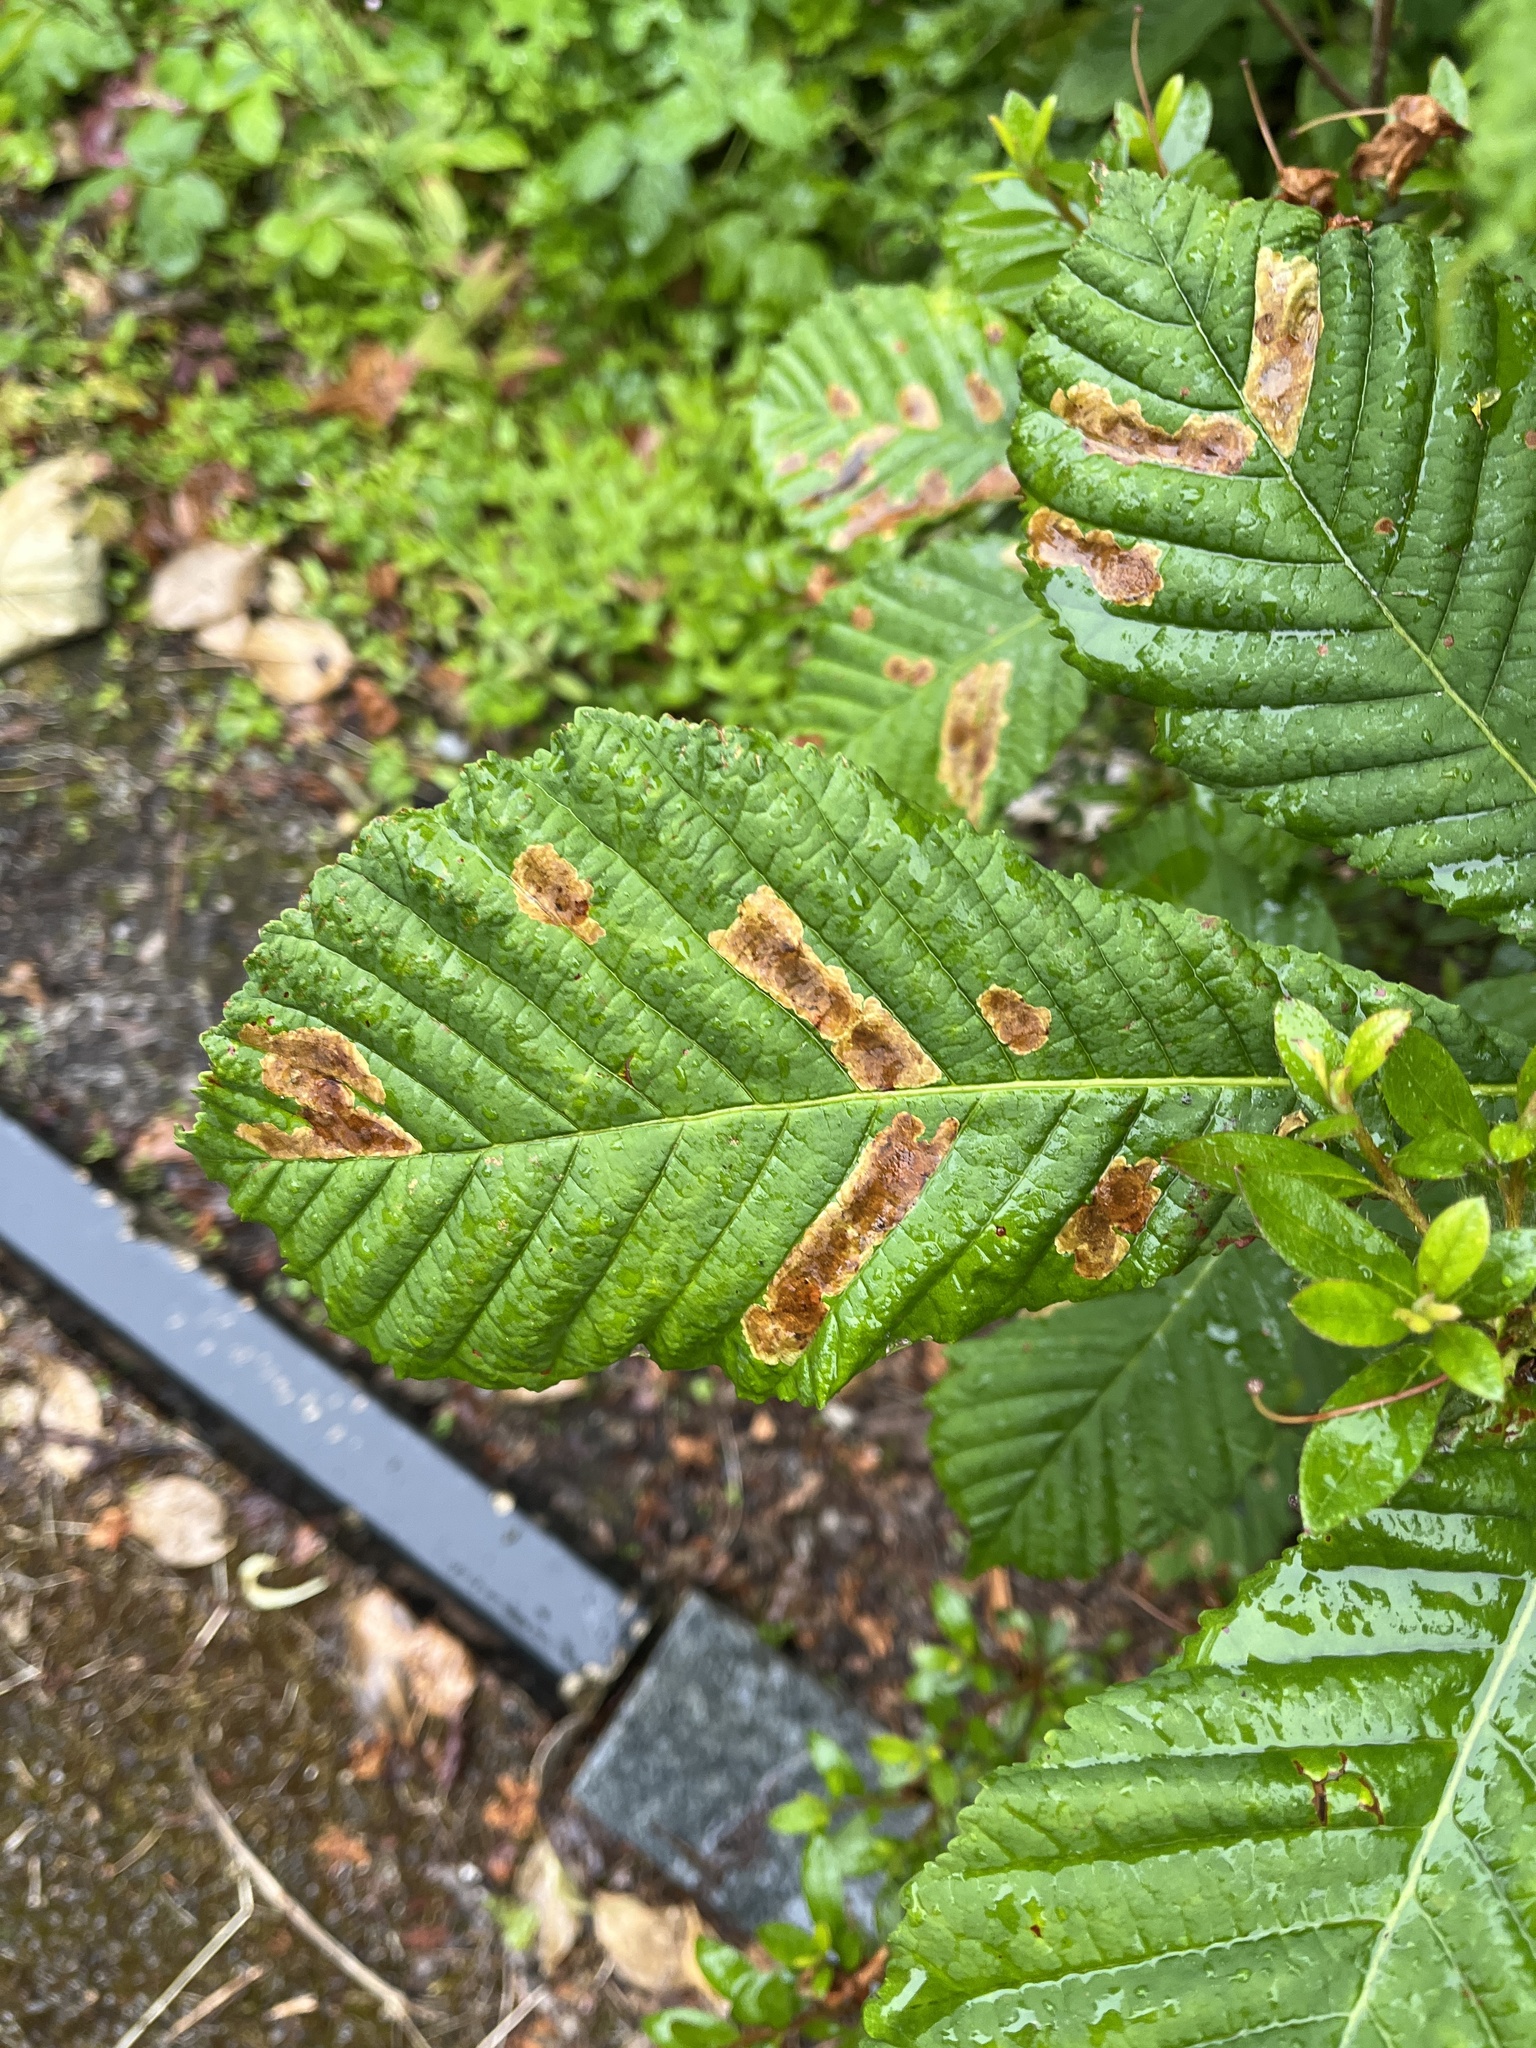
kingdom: Animalia
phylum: Arthropoda
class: Insecta
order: Lepidoptera
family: Gracillariidae
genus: Cameraria
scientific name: Cameraria ohridella
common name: Horse-chestnut leaf-miner
